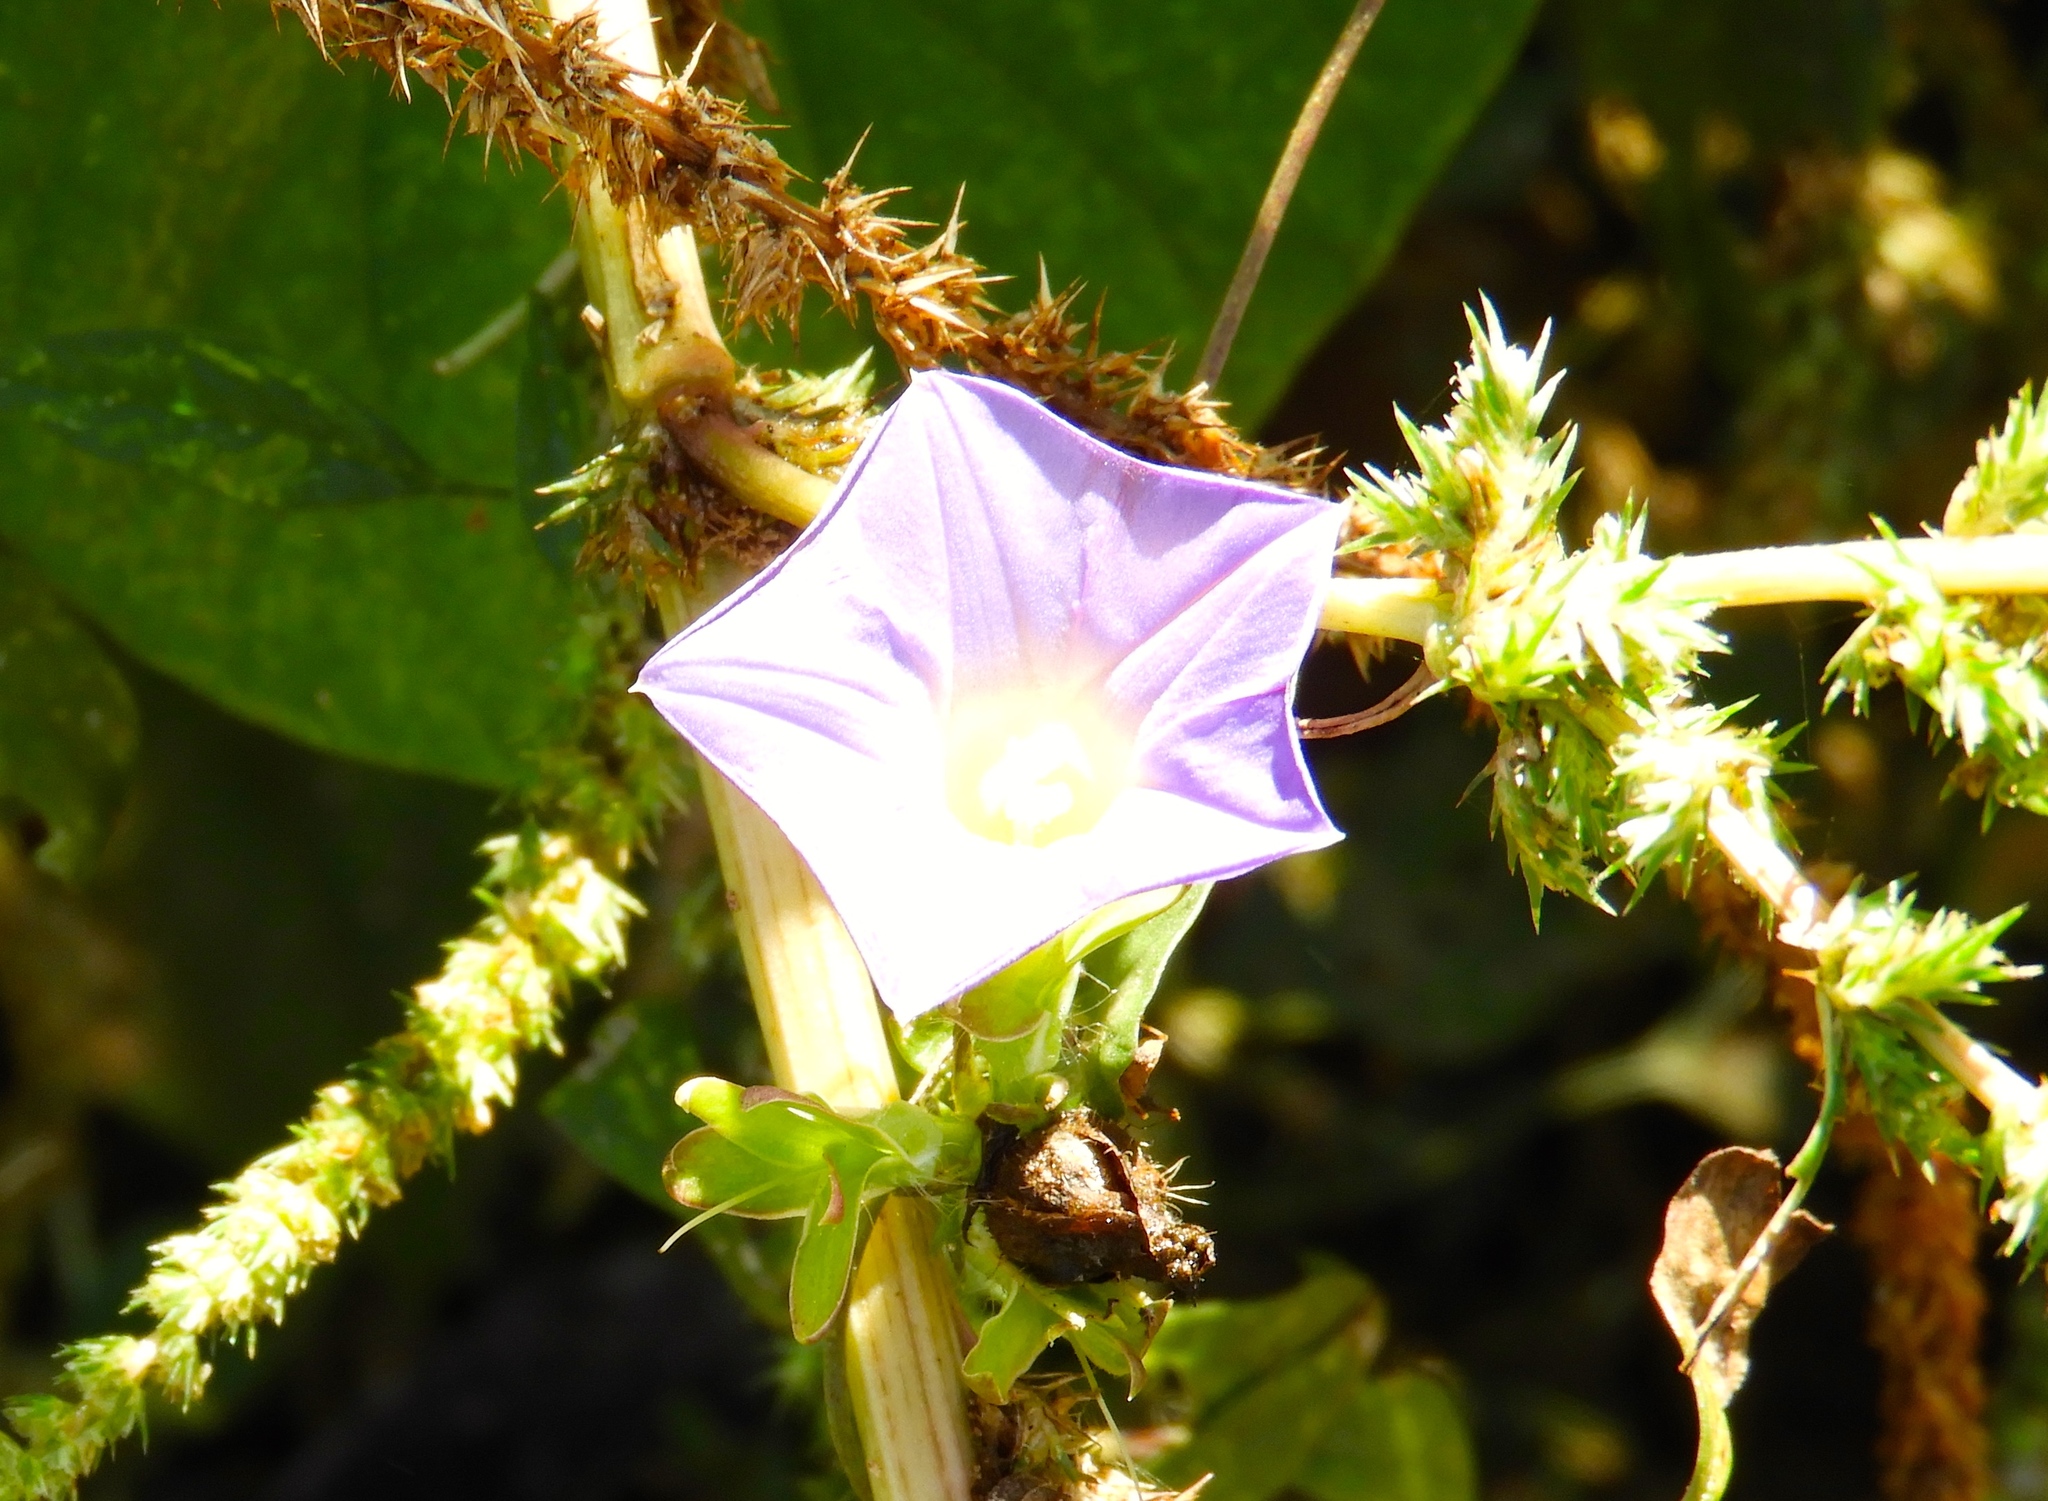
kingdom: Plantae
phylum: Tracheophyta
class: Magnoliopsida
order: Solanales
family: Convolvulaceae
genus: Ipomoea
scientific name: Ipomoea meyeri
